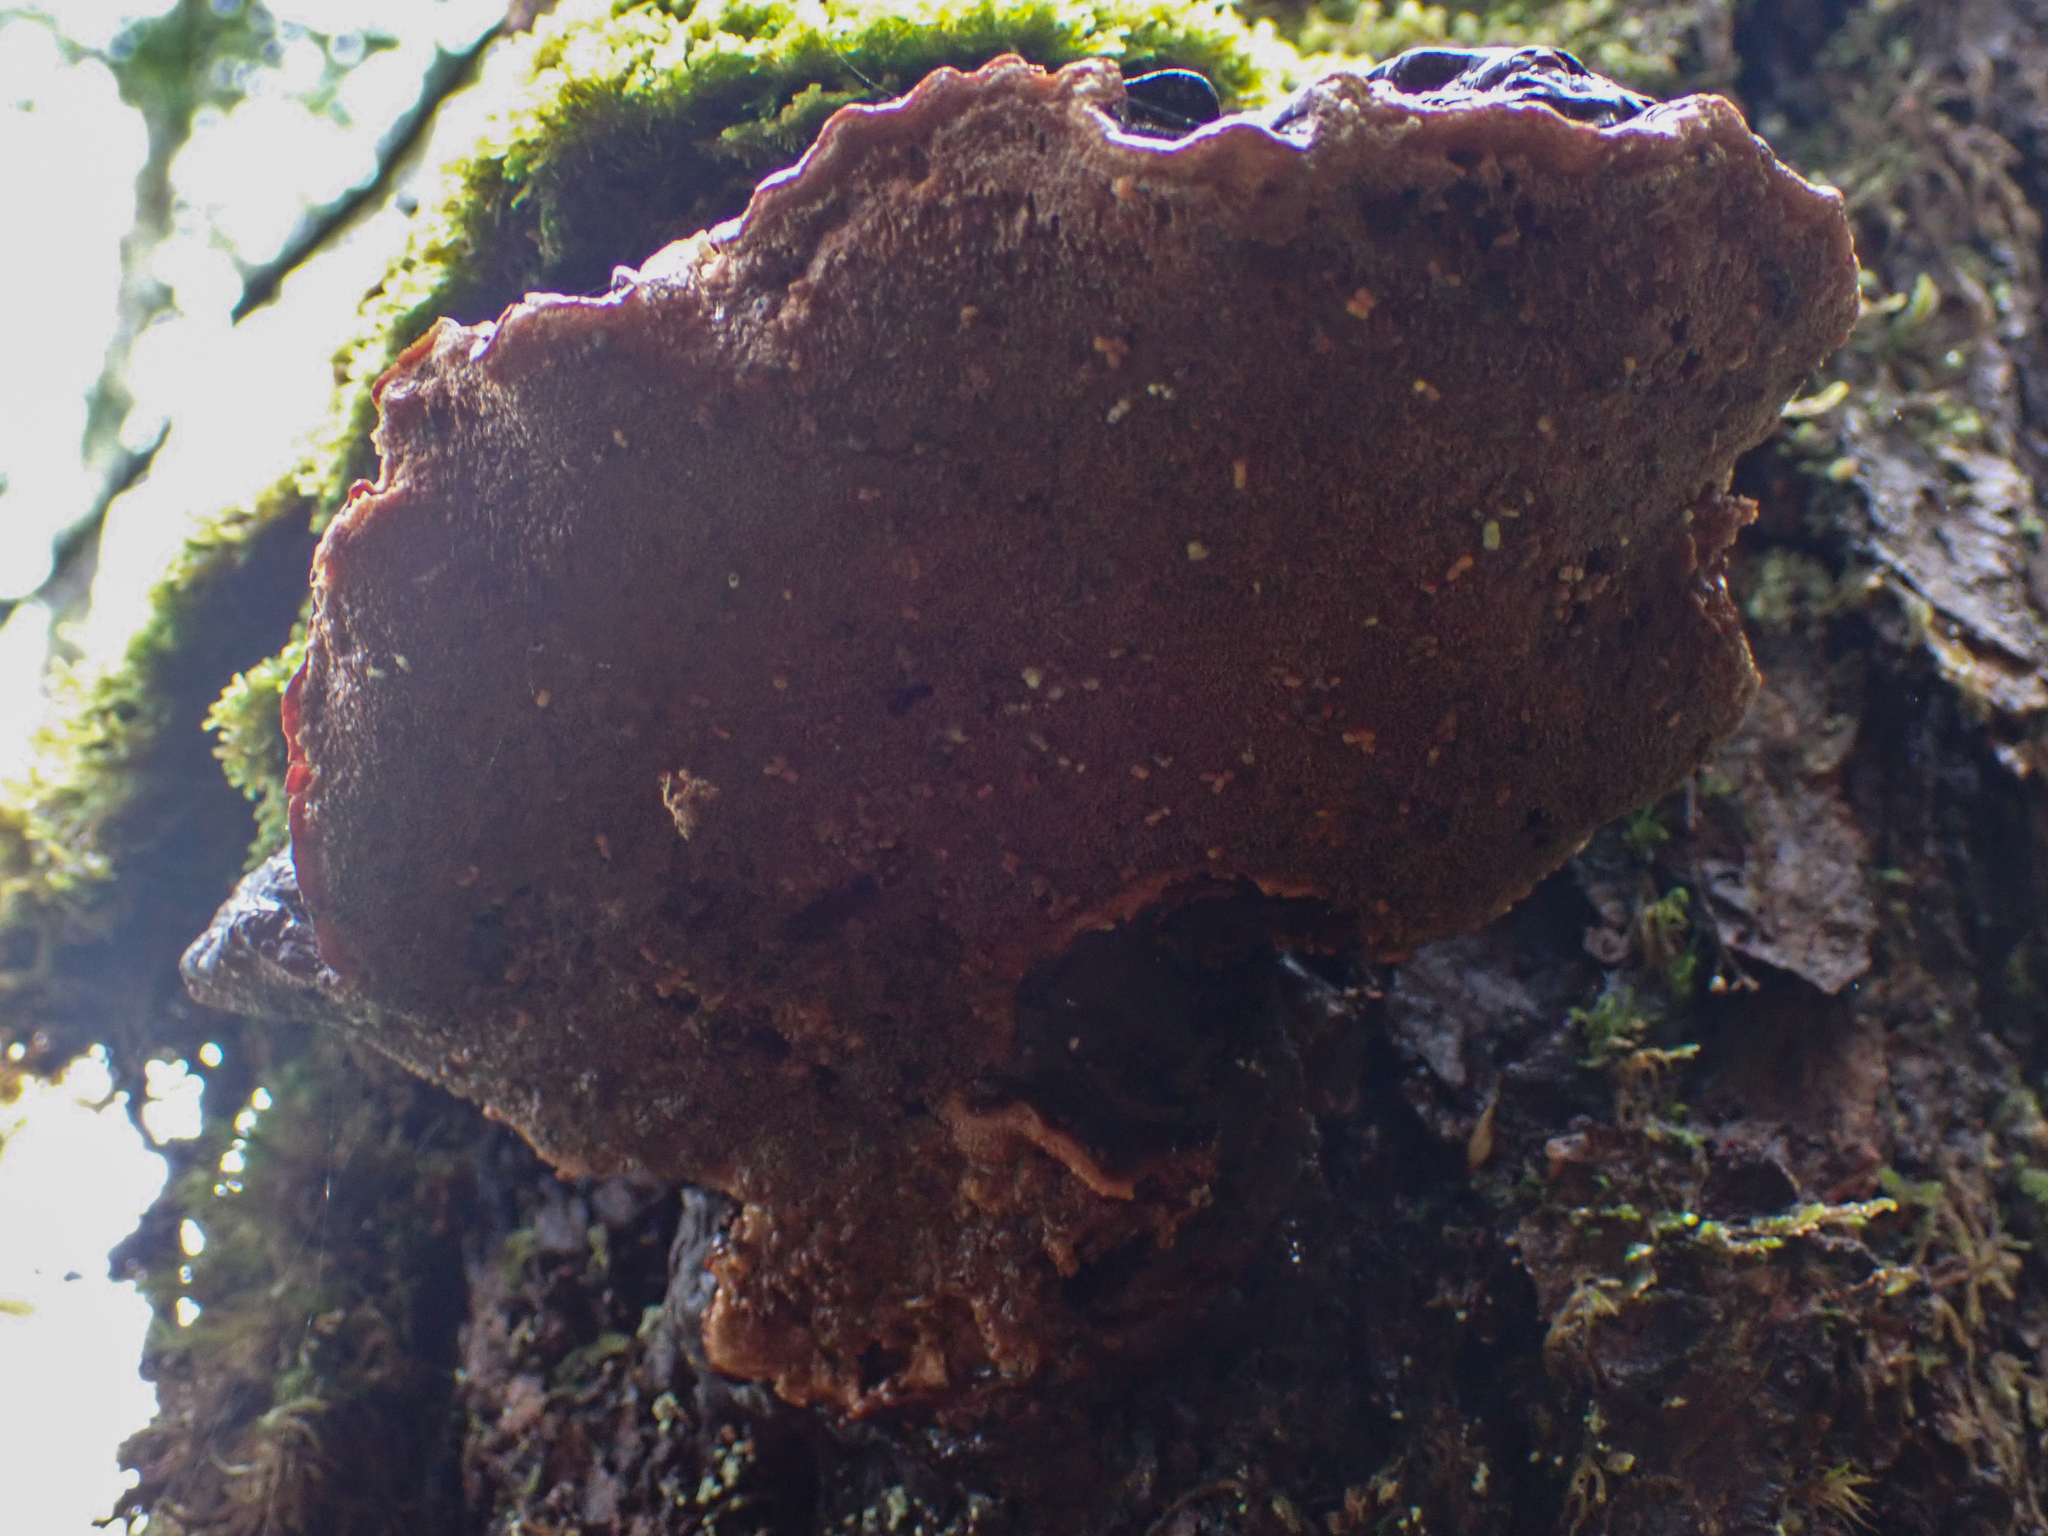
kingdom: Fungi
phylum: Basidiomycota
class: Agaricomycetes
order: Polyporales
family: Polyporaceae
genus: Ganoderma
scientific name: Ganoderma oregonense
